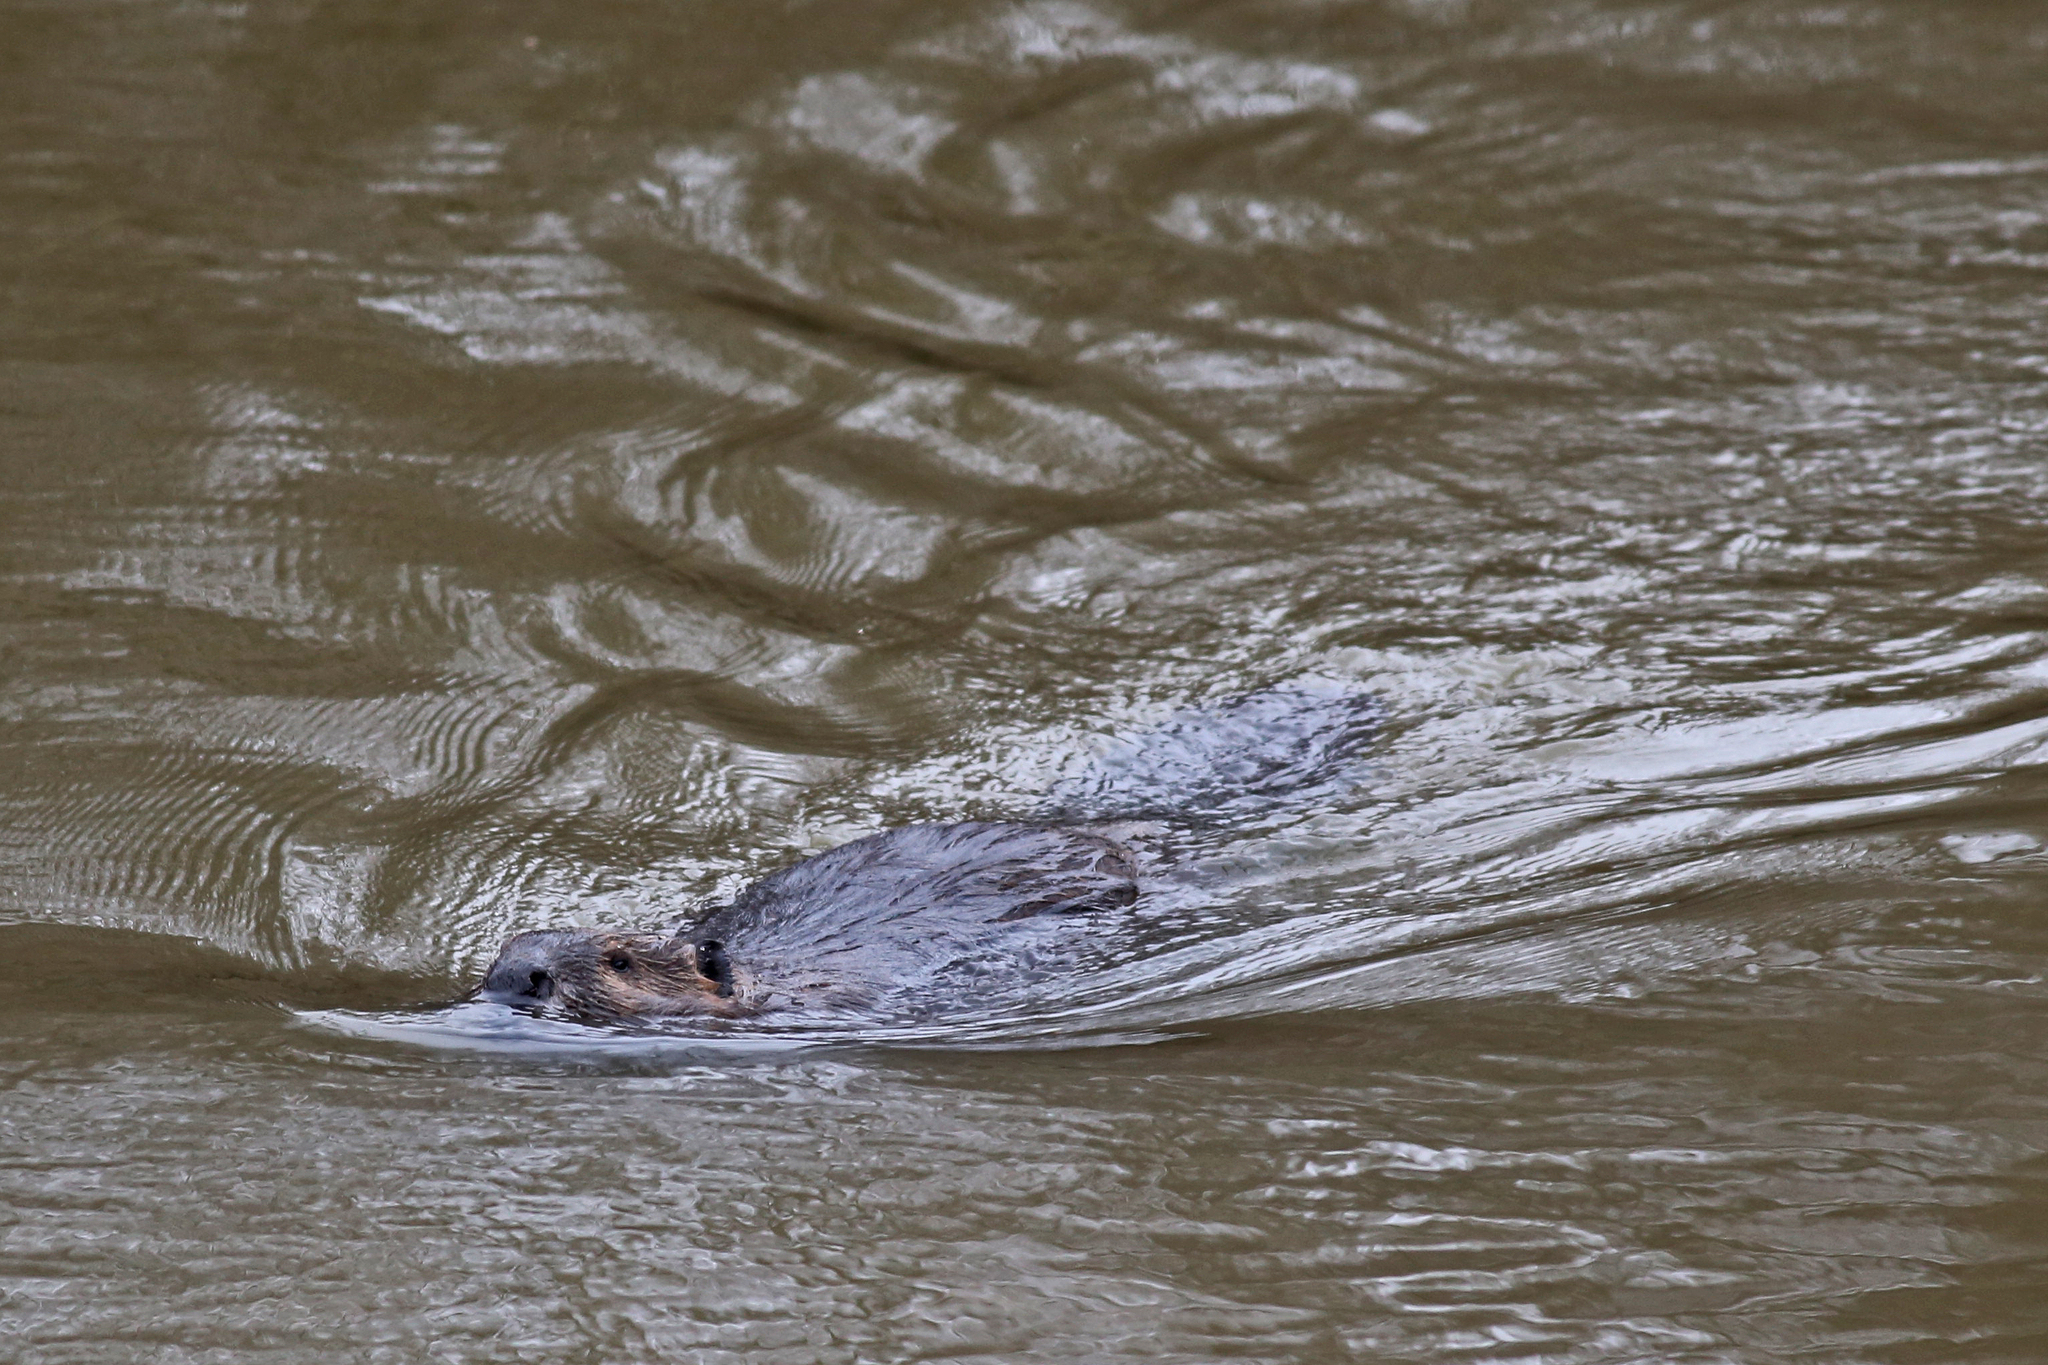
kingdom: Animalia
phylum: Chordata
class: Mammalia
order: Rodentia
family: Castoridae
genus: Castor
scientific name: Castor canadensis
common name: American beaver
